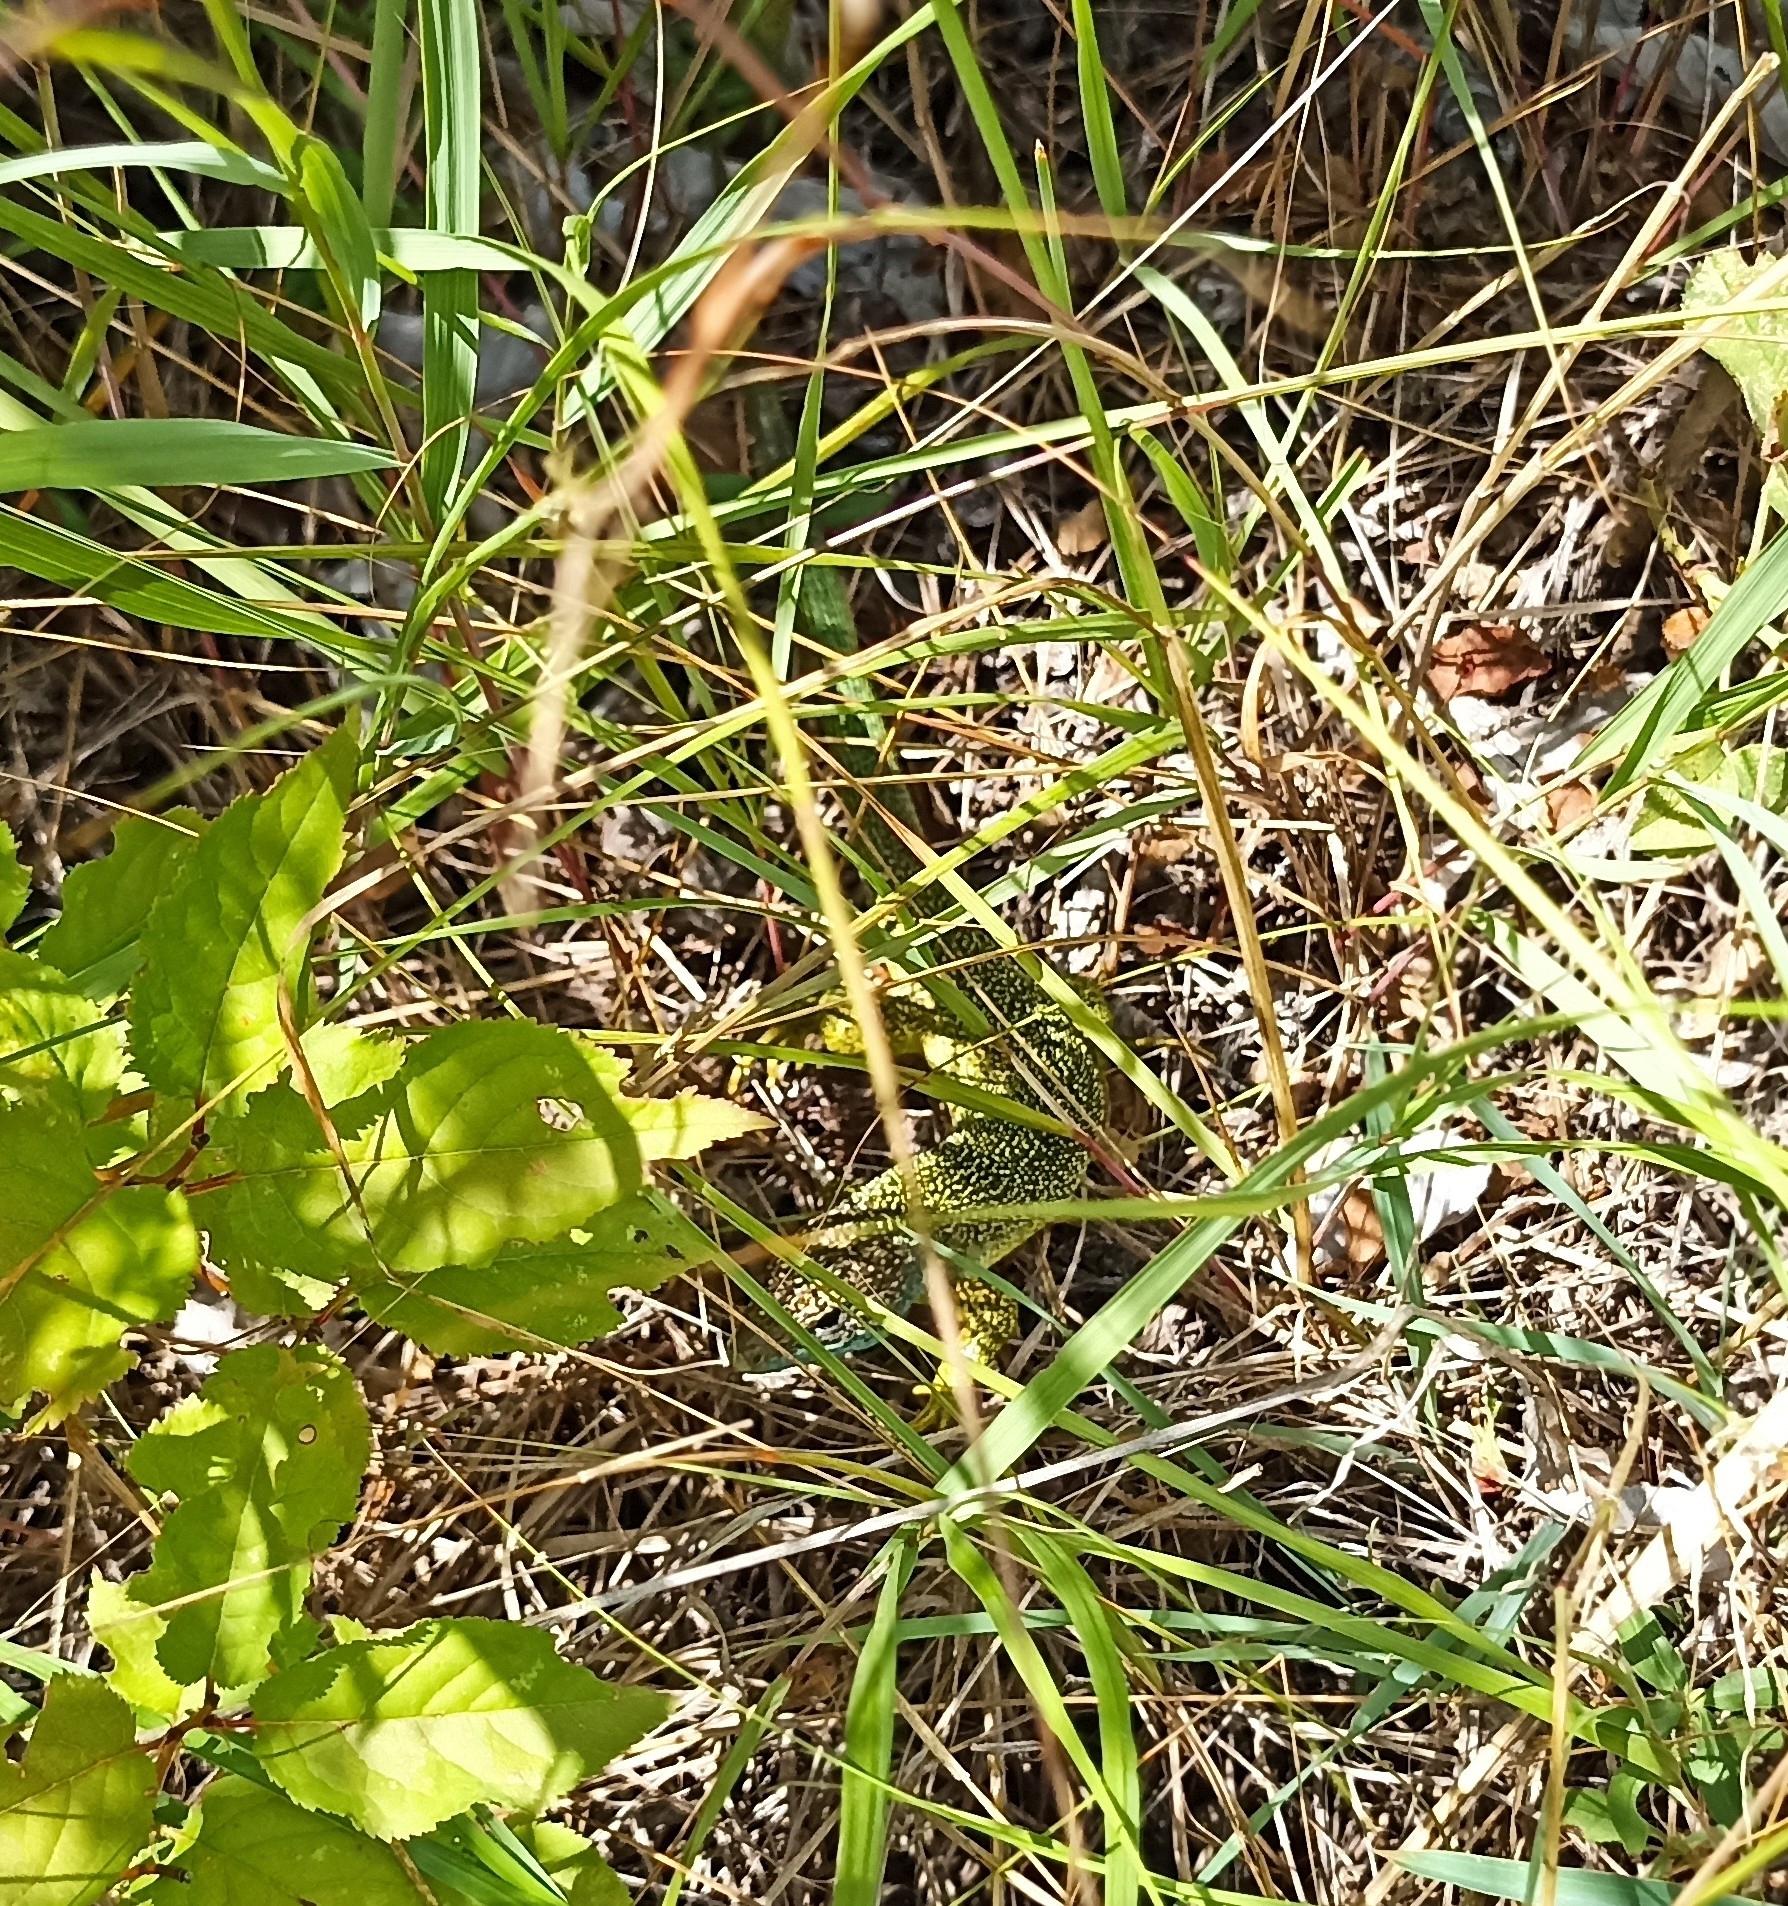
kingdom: Animalia
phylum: Chordata
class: Squamata
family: Lacertidae
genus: Lacerta
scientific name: Lacerta bilineata
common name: Western green lizard
